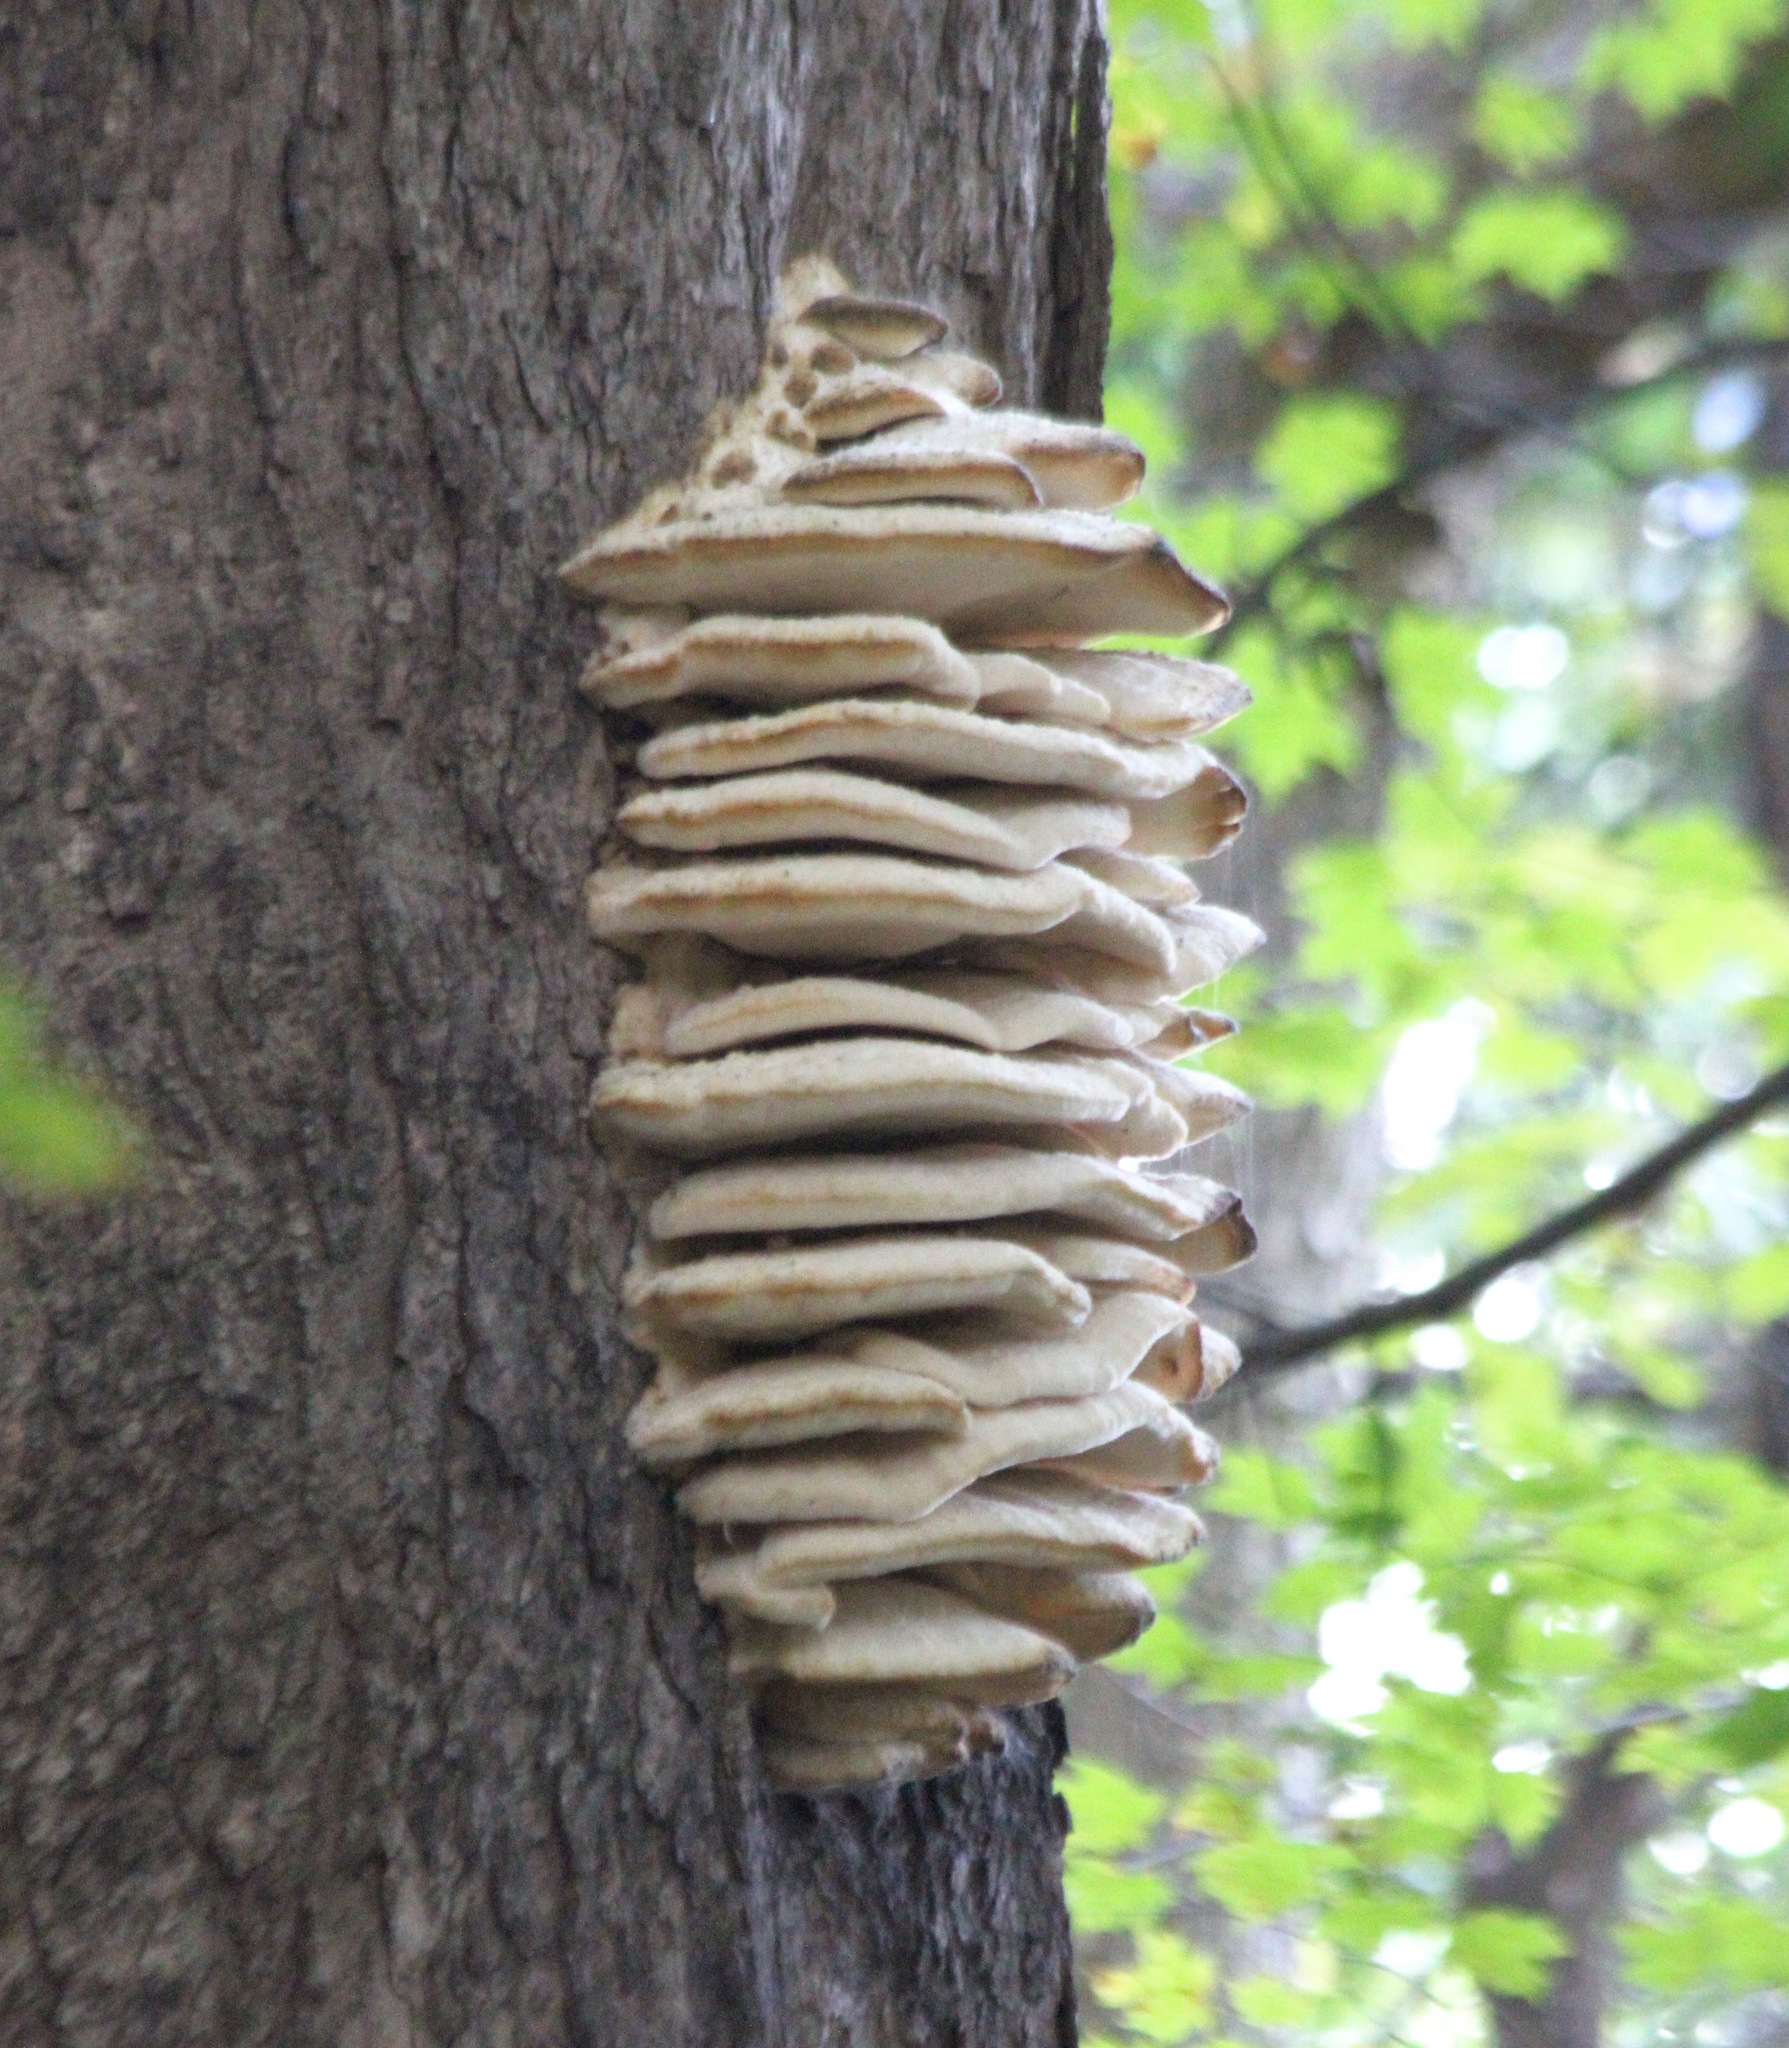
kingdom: Fungi
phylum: Basidiomycota
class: Agaricomycetes
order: Polyporales
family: Meruliaceae
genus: Climacodon
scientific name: Climacodon septentrionalis
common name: Northern tooth
